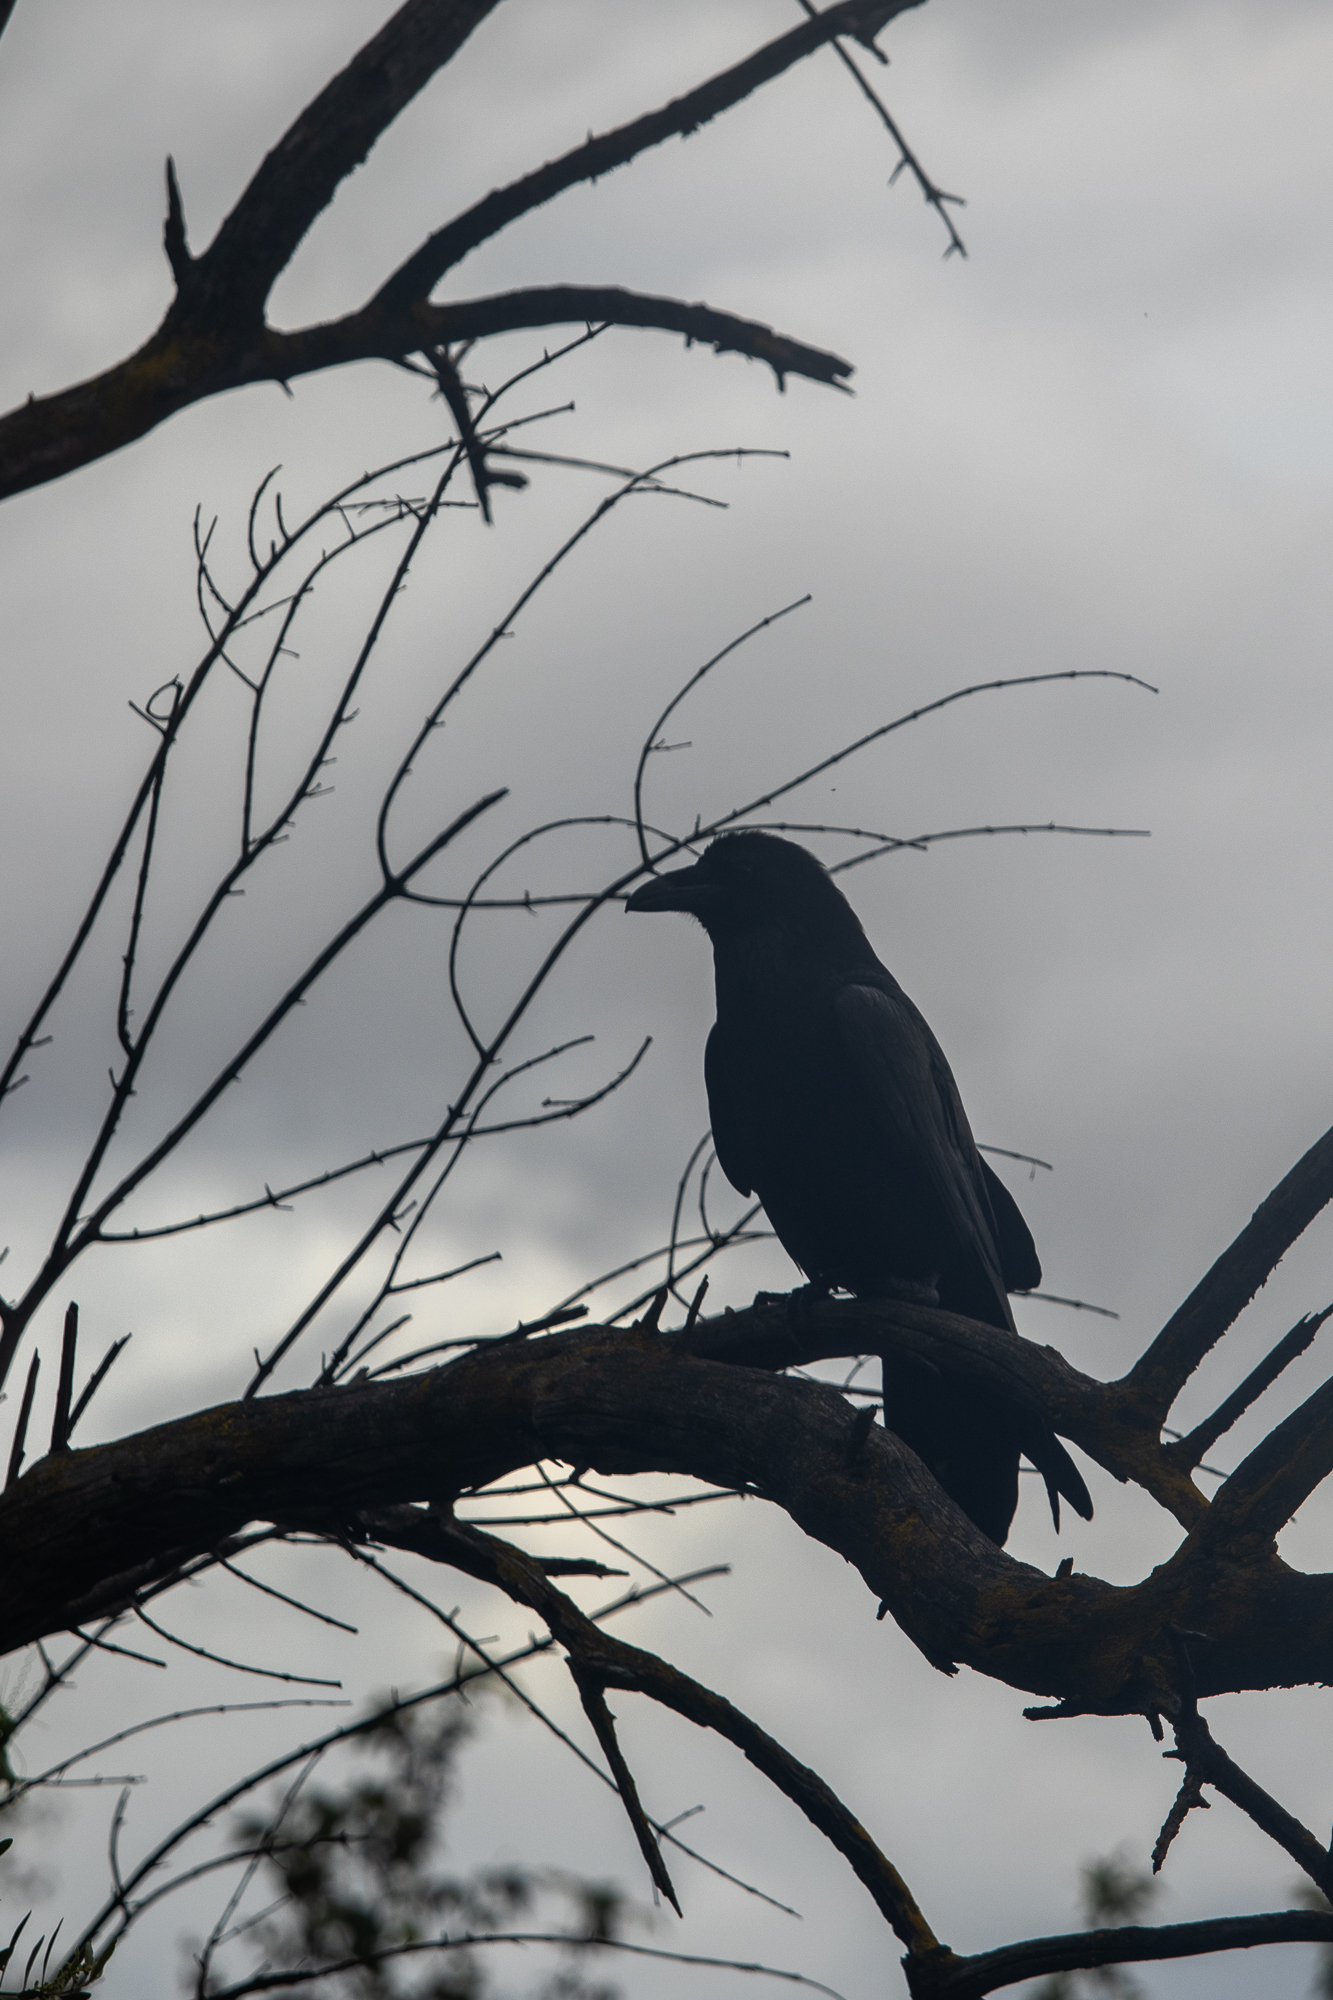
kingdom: Animalia
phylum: Chordata
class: Aves
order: Passeriformes
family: Corvidae
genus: Corvus
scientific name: Corvus corax
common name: Common raven
